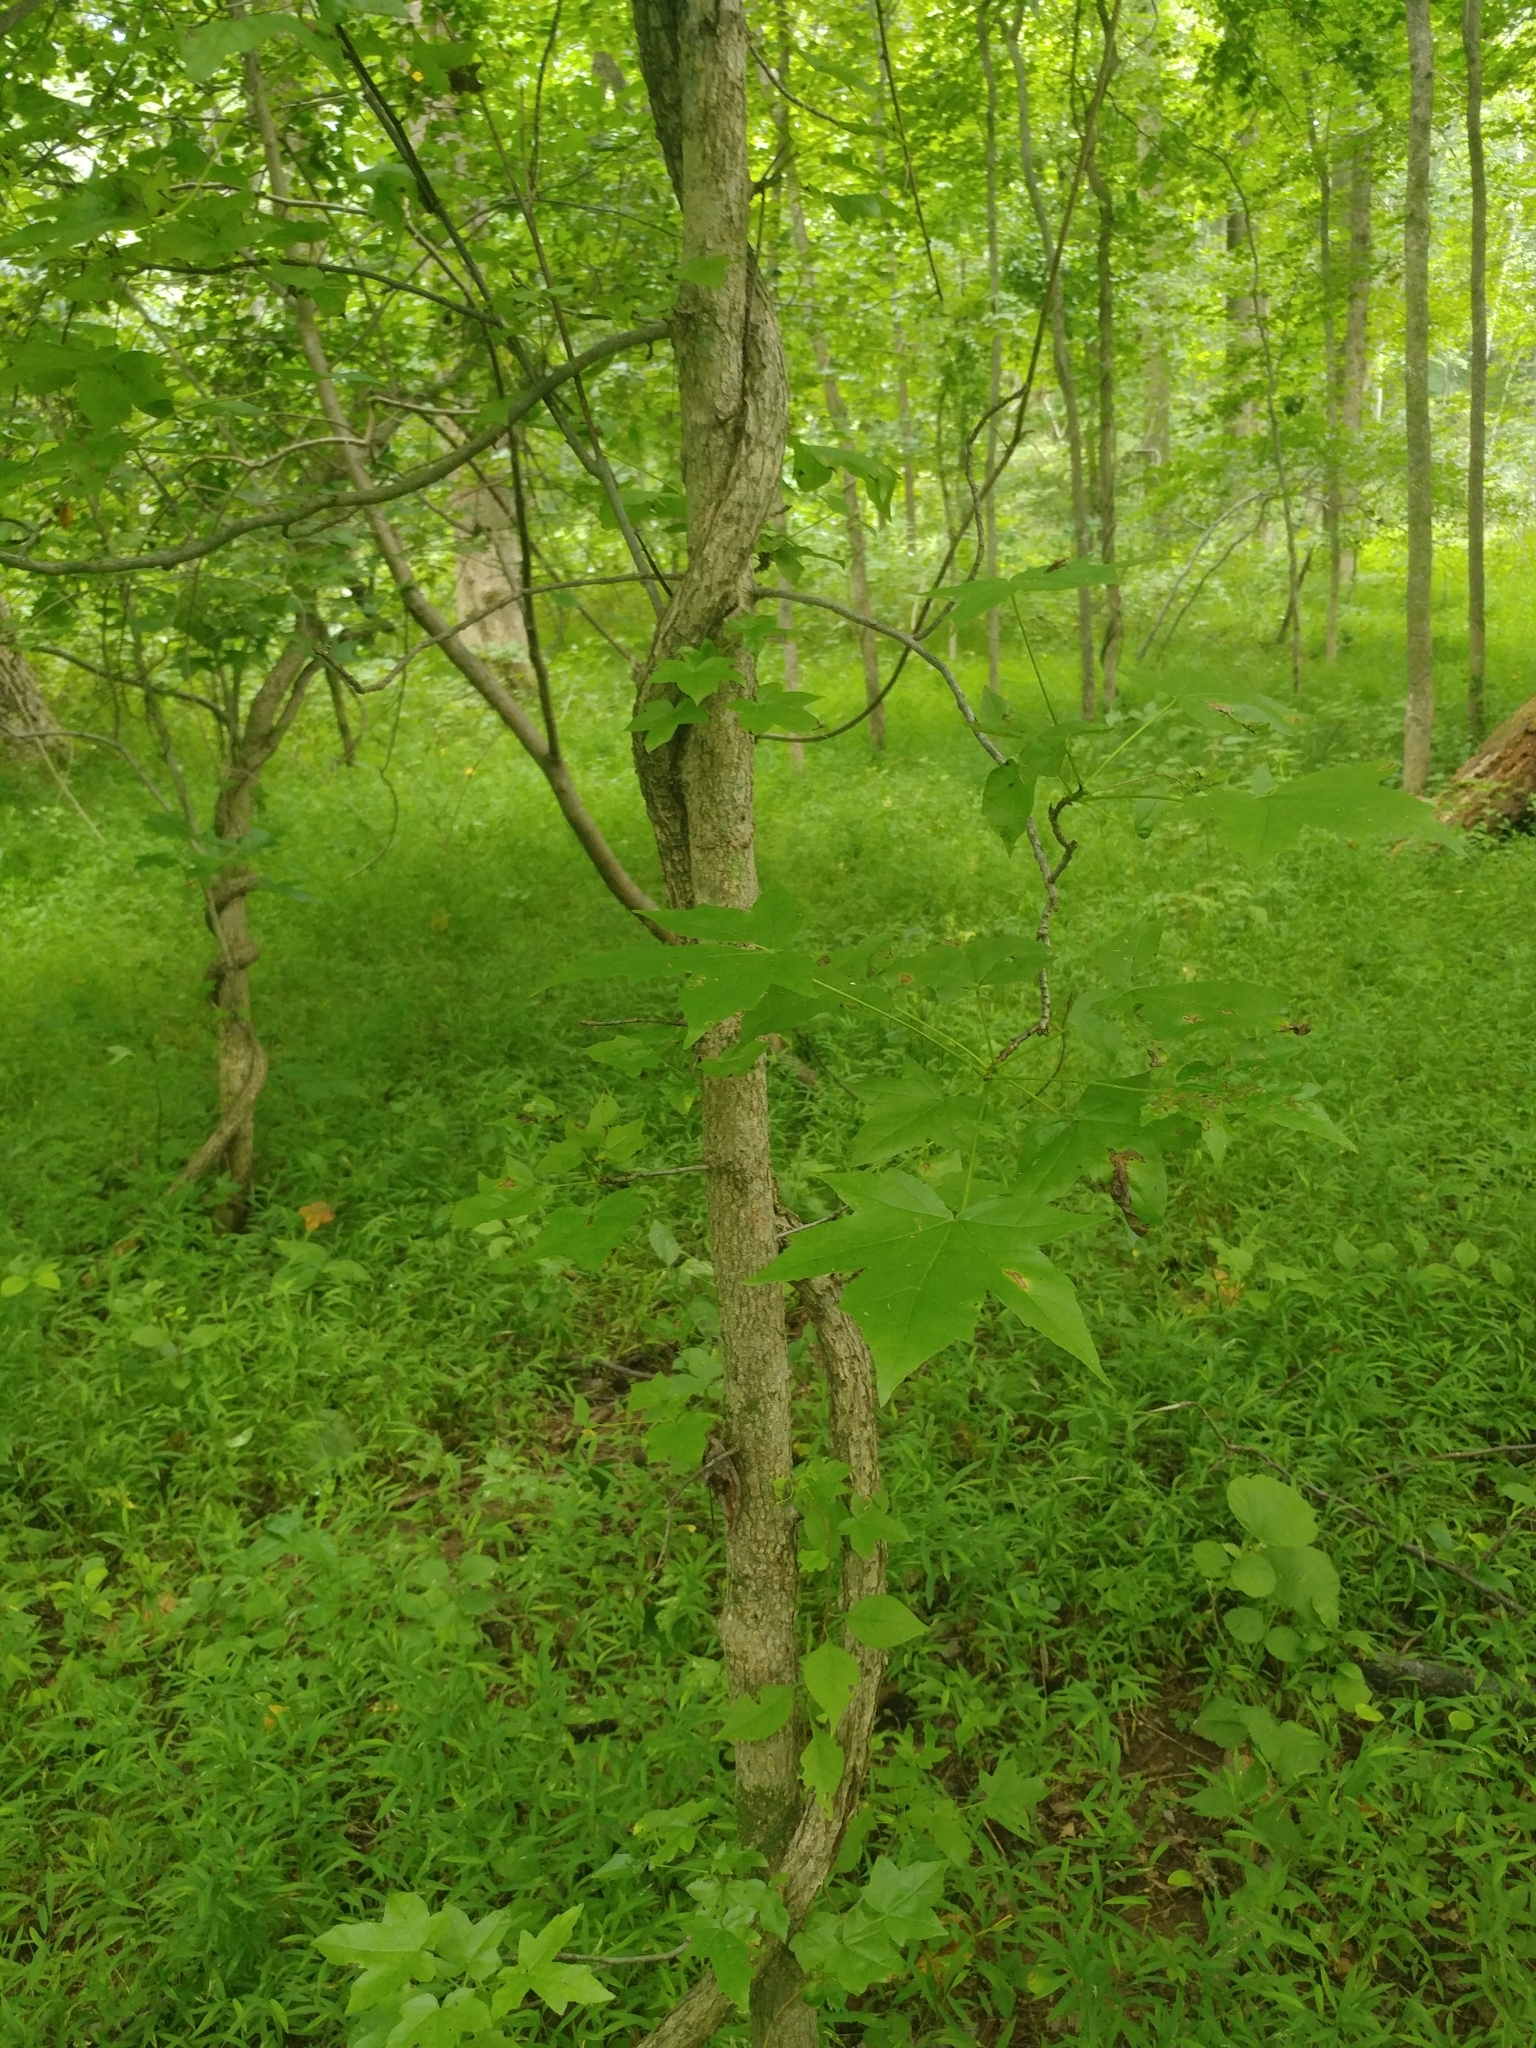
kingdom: Plantae
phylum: Tracheophyta
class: Magnoliopsida
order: Saxifragales
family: Altingiaceae
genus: Liquidambar
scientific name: Liquidambar styraciflua
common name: Sweet gum
